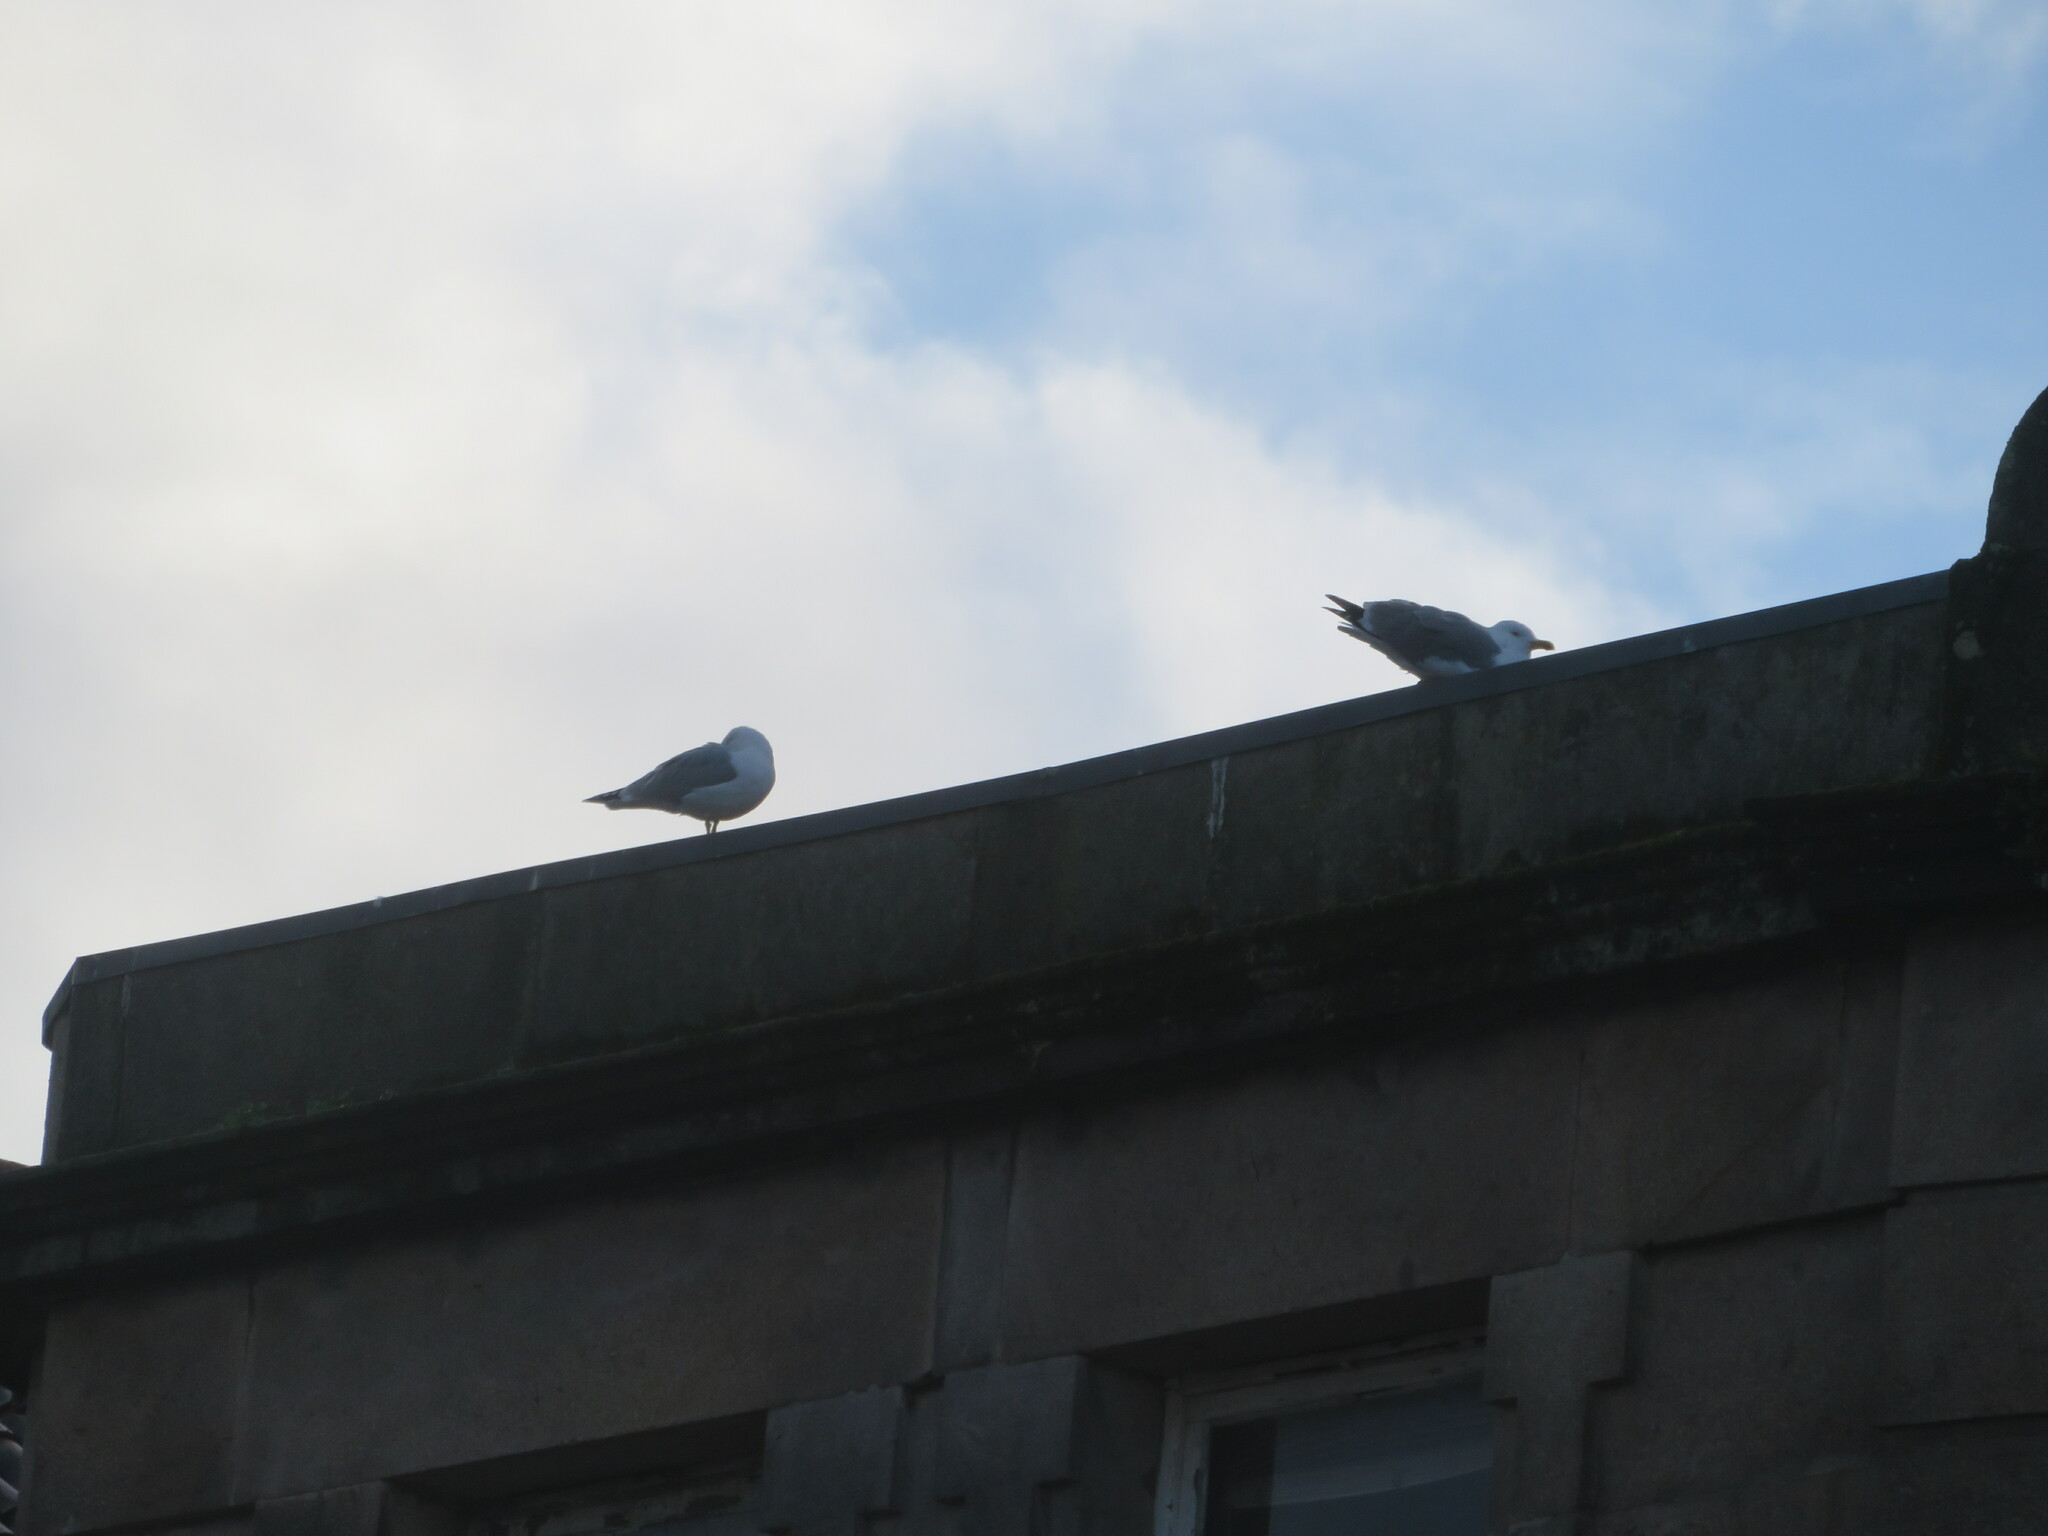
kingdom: Animalia
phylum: Chordata
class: Aves
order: Charadriiformes
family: Laridae
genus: Larus
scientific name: Larus michahellis
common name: Yellow-legged gull
